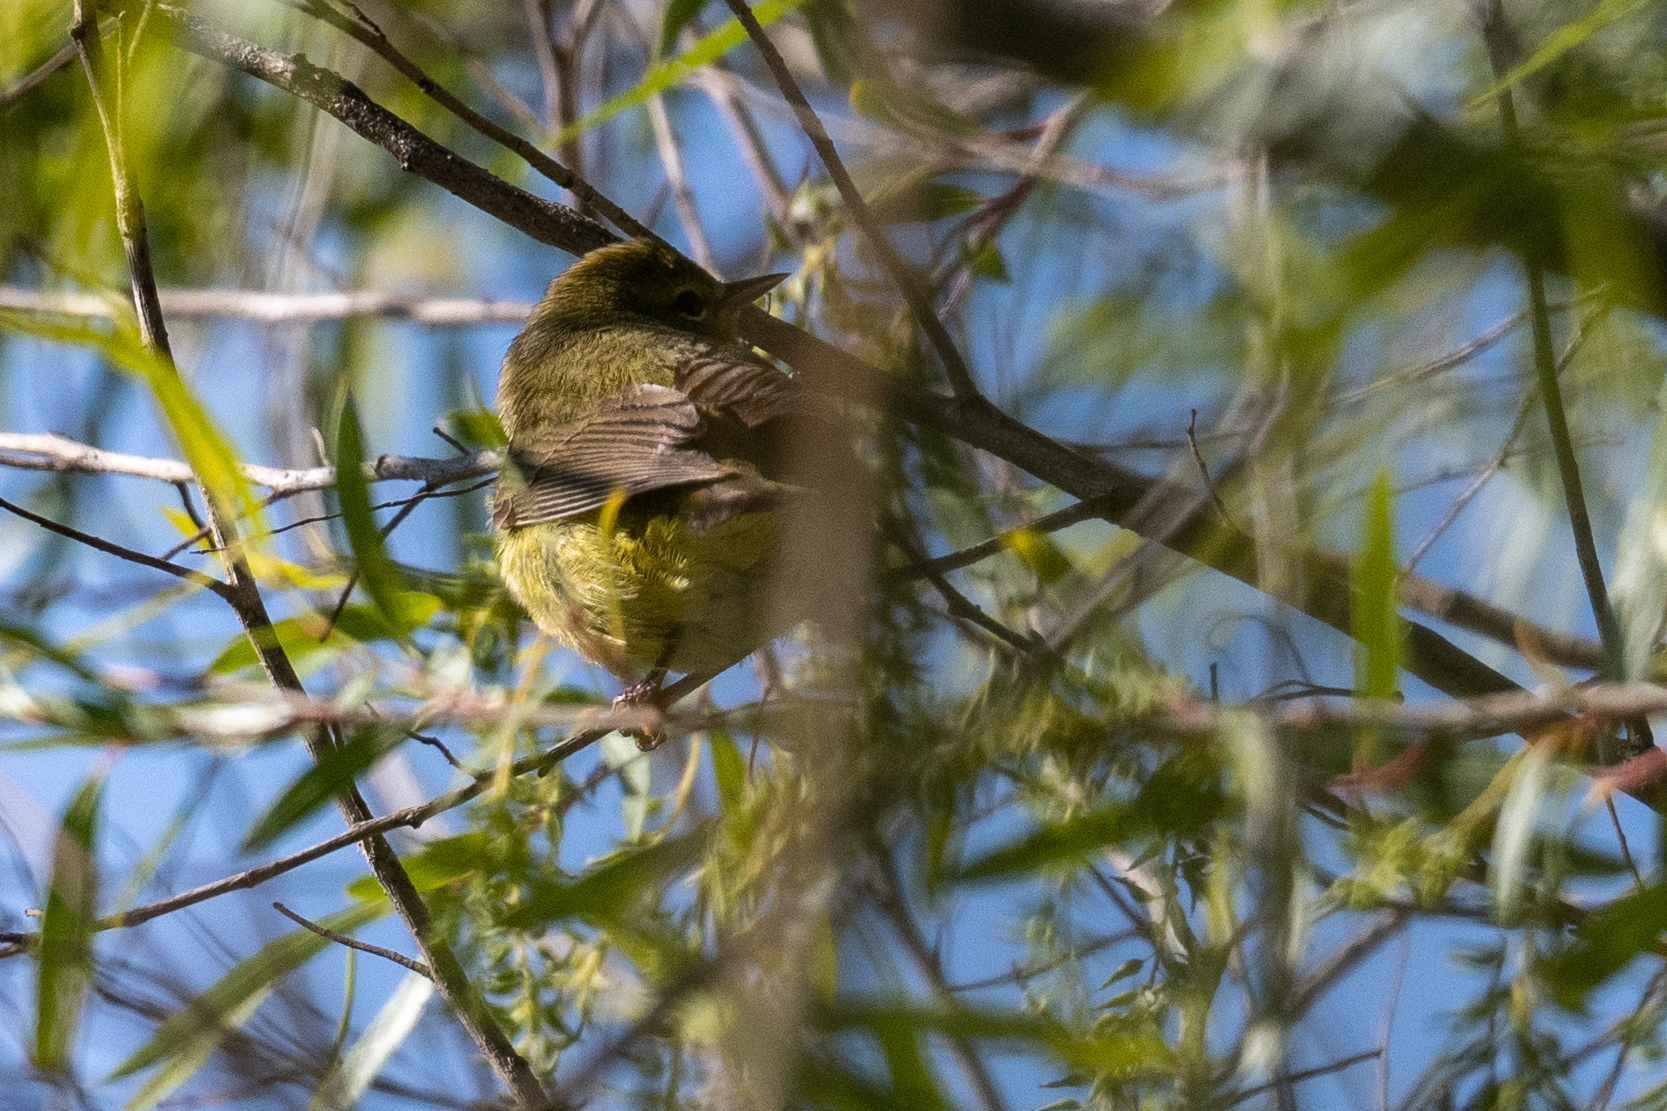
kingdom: Animalia
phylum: Chordata
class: Aves
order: Passeriformes
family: Parulidae
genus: Leiothlypis
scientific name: Leiothlypis celata
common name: Orange-crowned warbler
